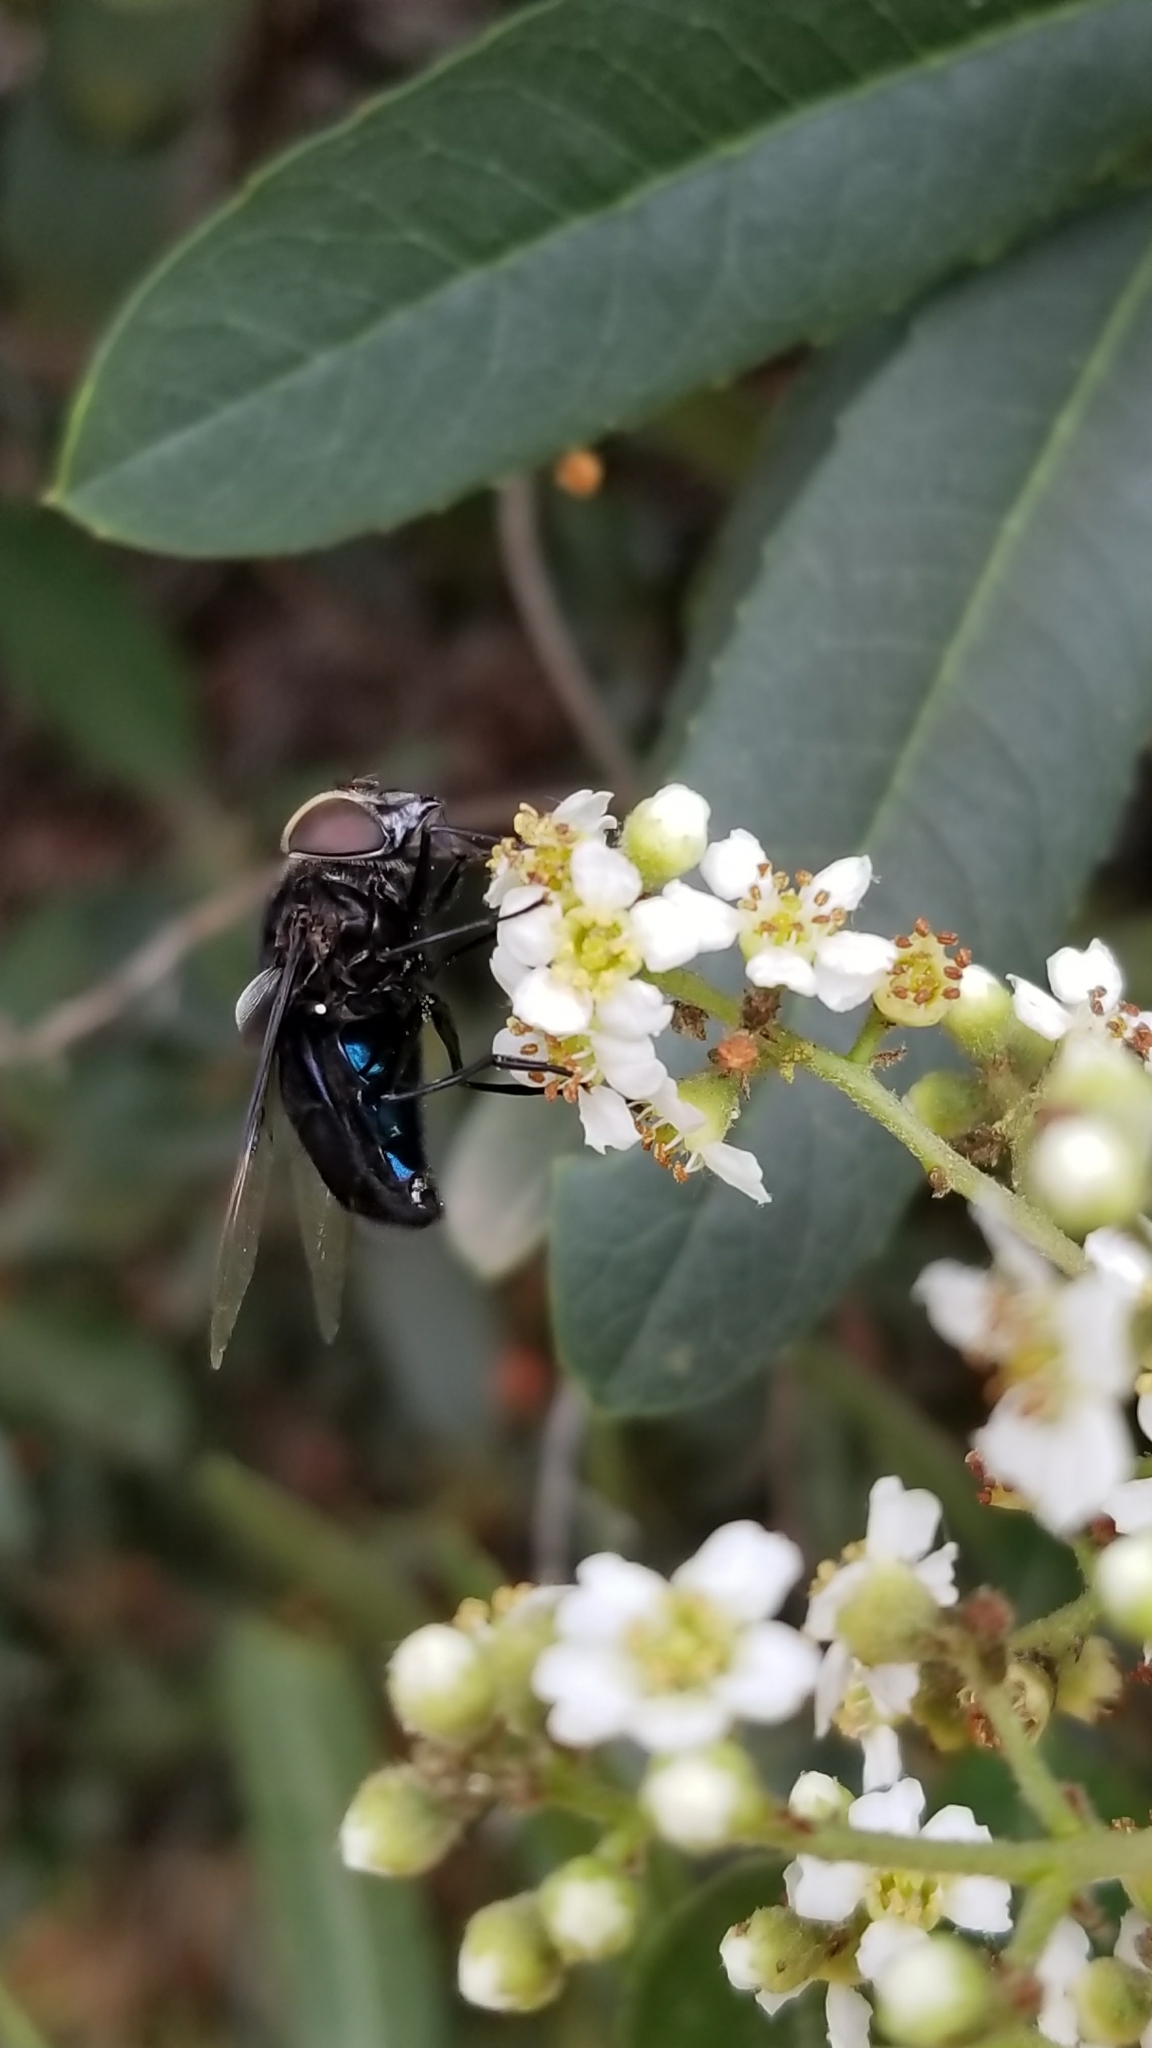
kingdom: Animalia
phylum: Arthropoda
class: Insecta
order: Diptera
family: Syrphidae
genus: Copestylum
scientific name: Copestylum mexicanum
